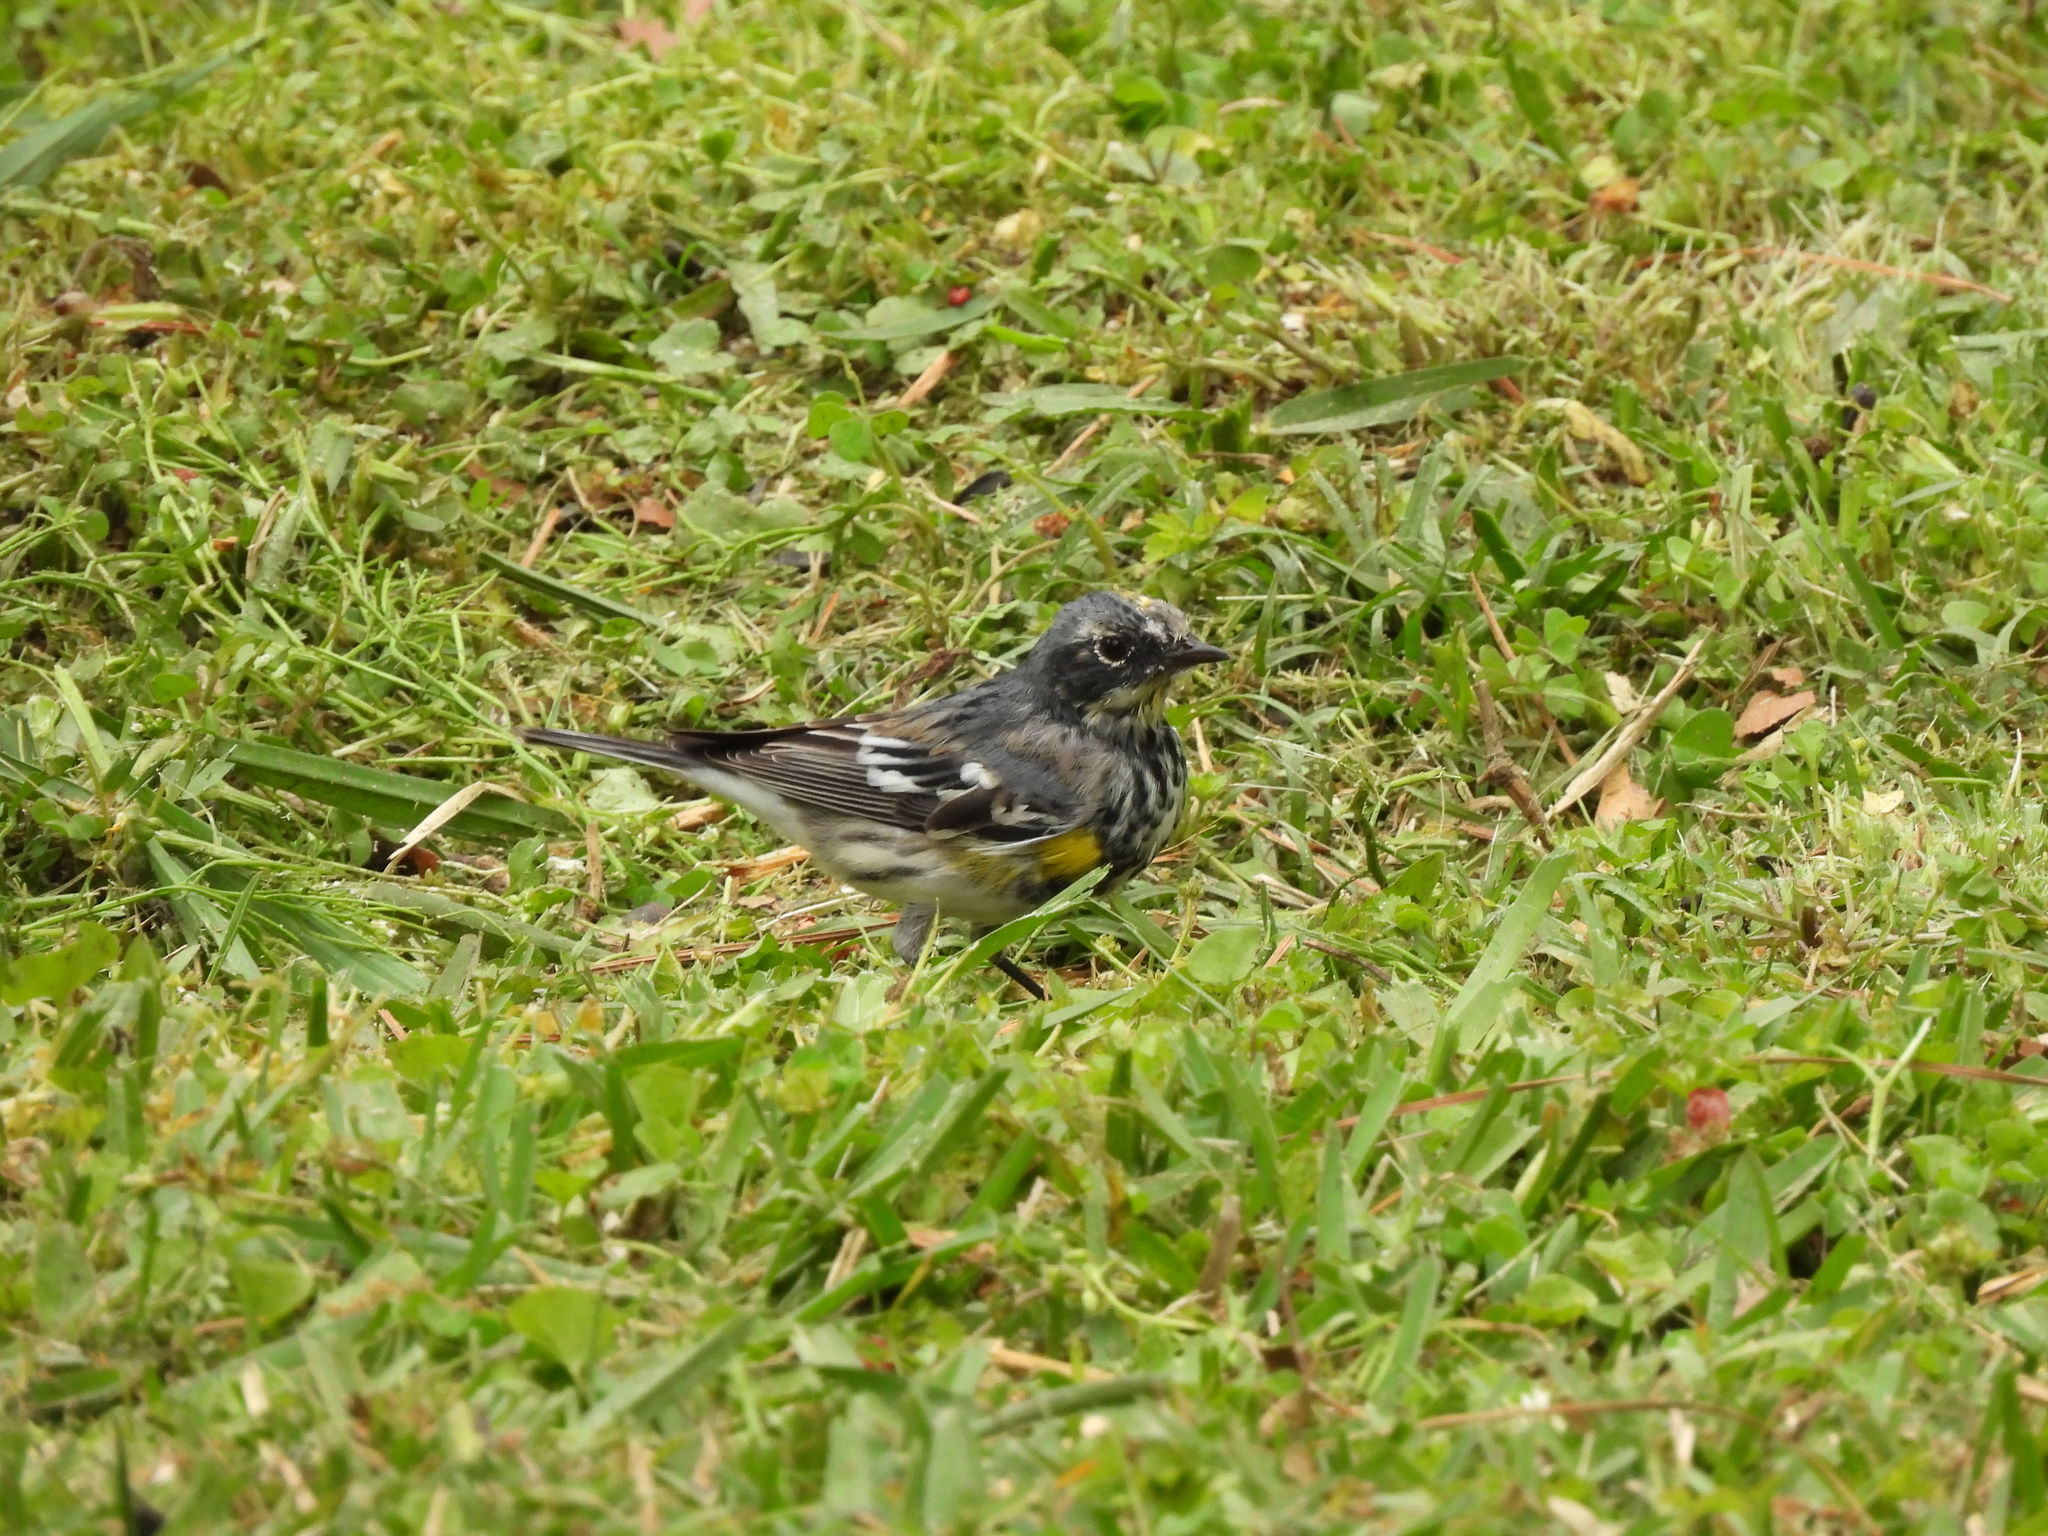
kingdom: Animalia
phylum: Chordata
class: Aves
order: Passeriformes
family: Parulidae
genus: Setophaga
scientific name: Setophaga coronata
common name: Myrtle warbler
